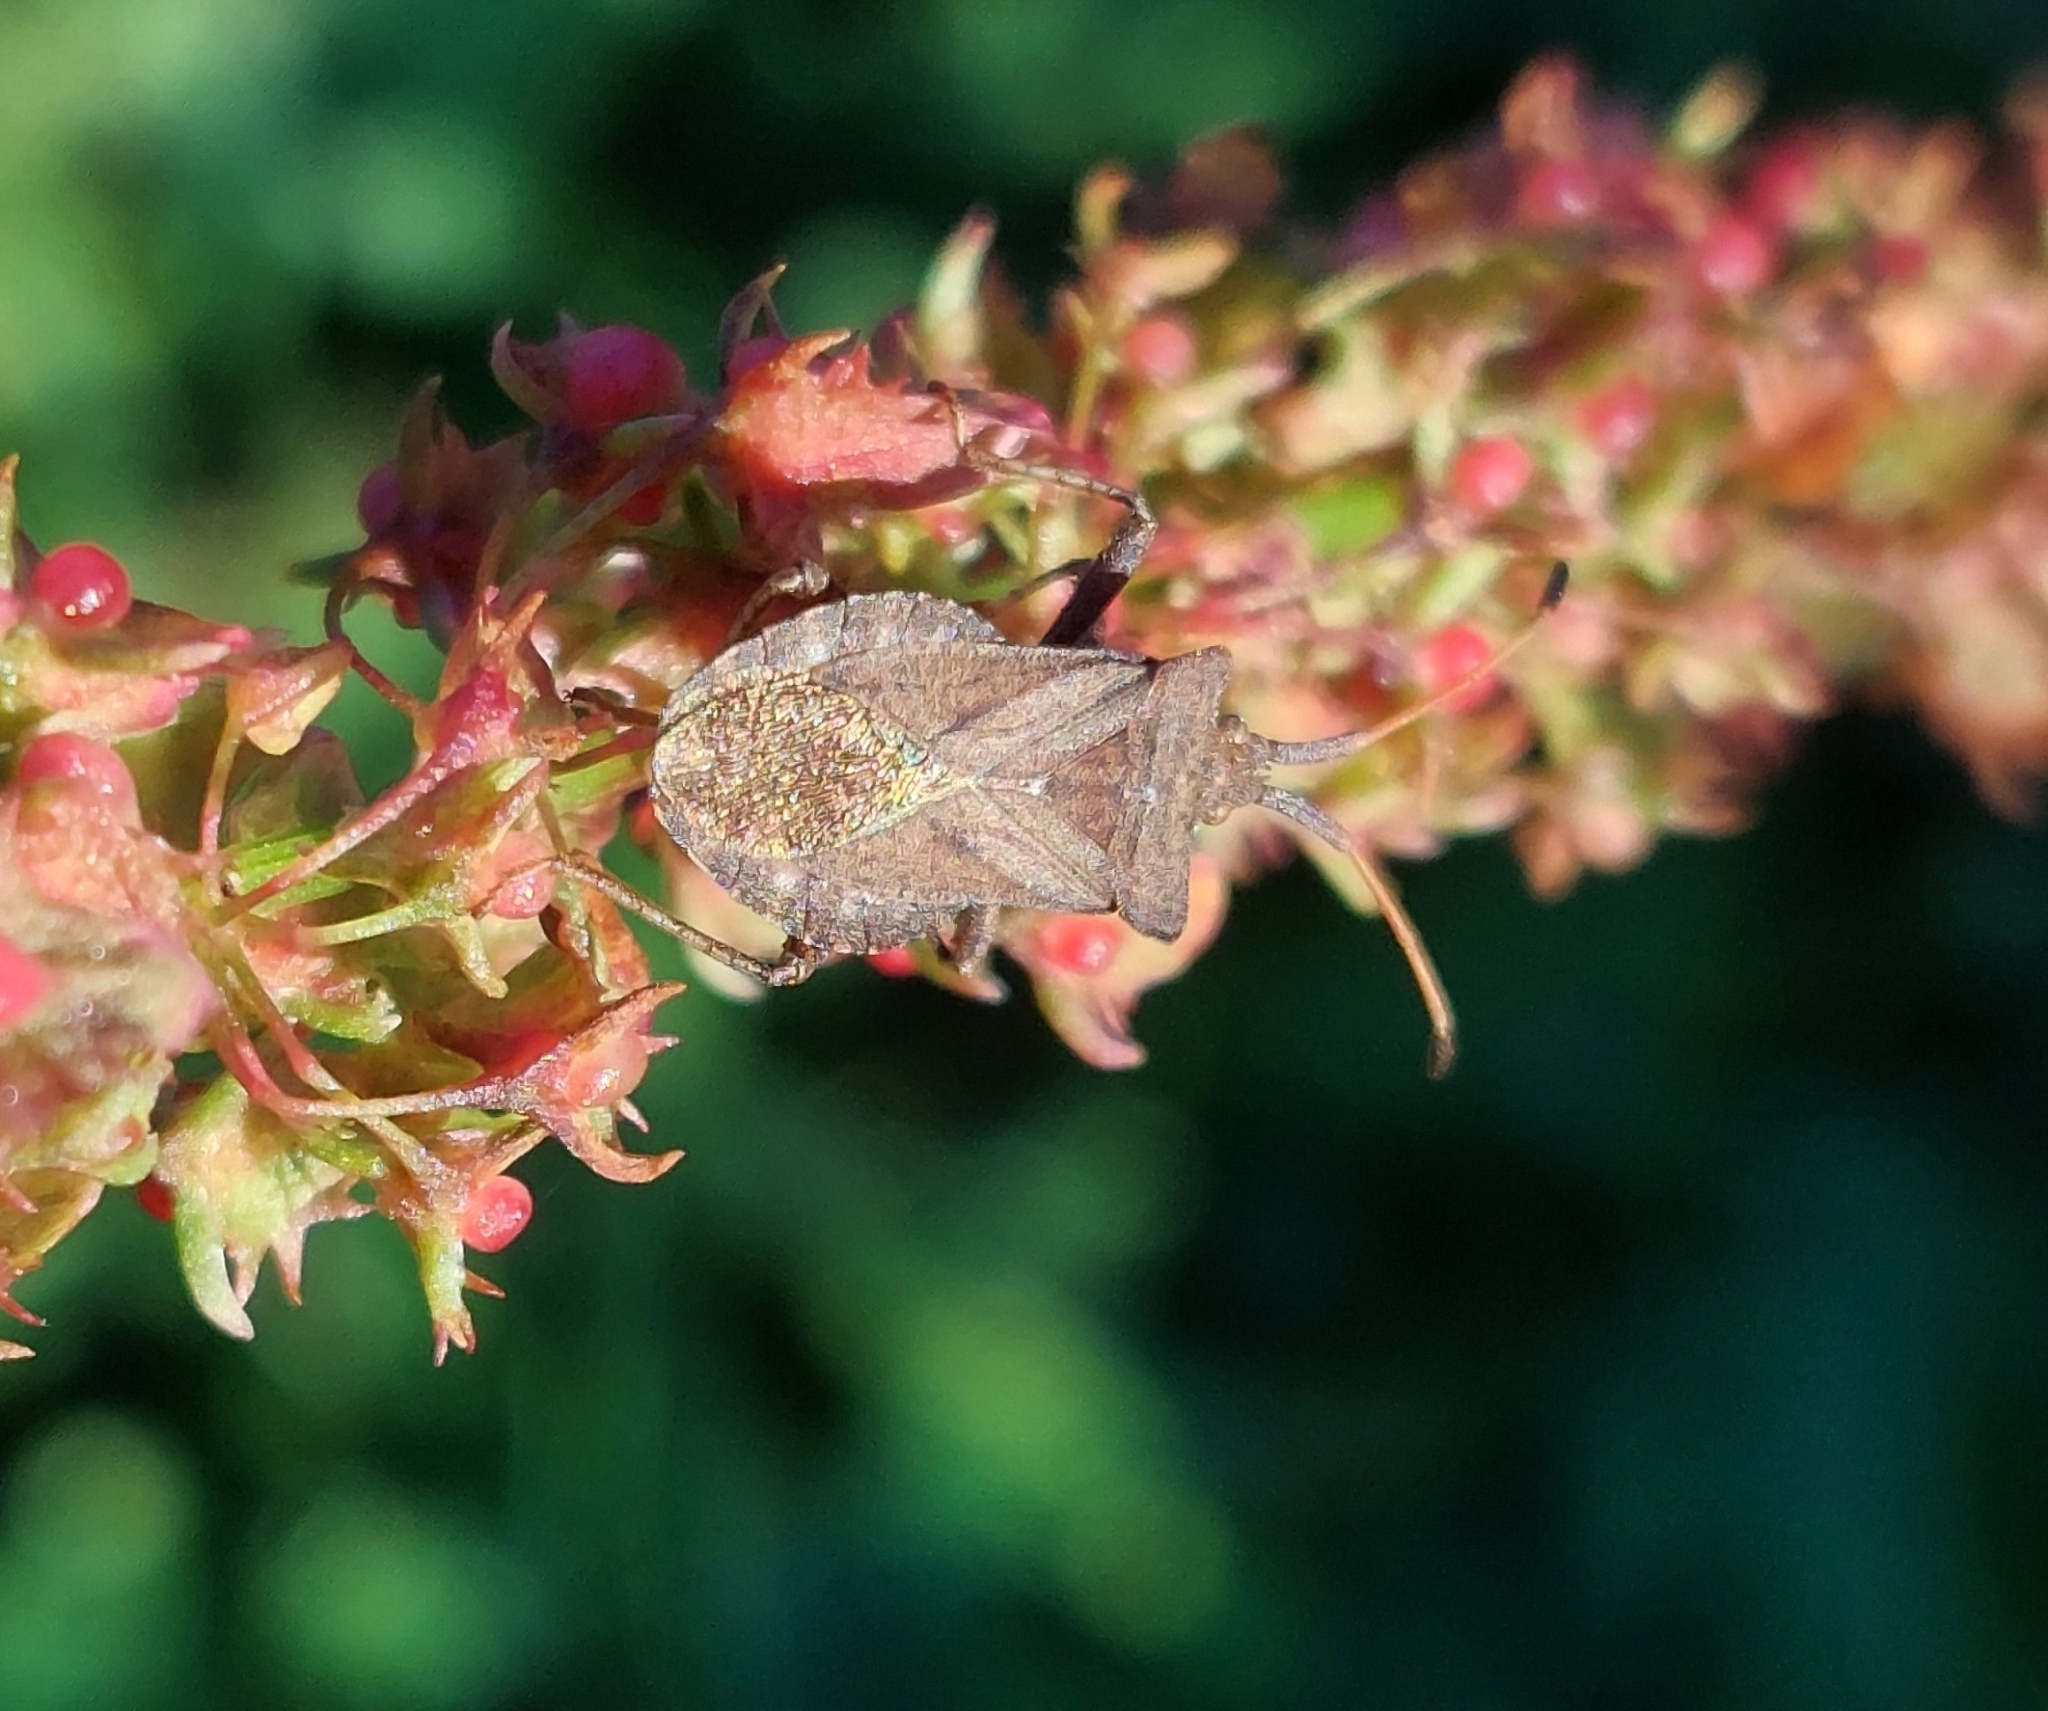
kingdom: Animalia
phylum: Arthropoda
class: Insecta
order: Hemiptera
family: Coreidae
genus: Coreus
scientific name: Coreus marginatus
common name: Dock bug
